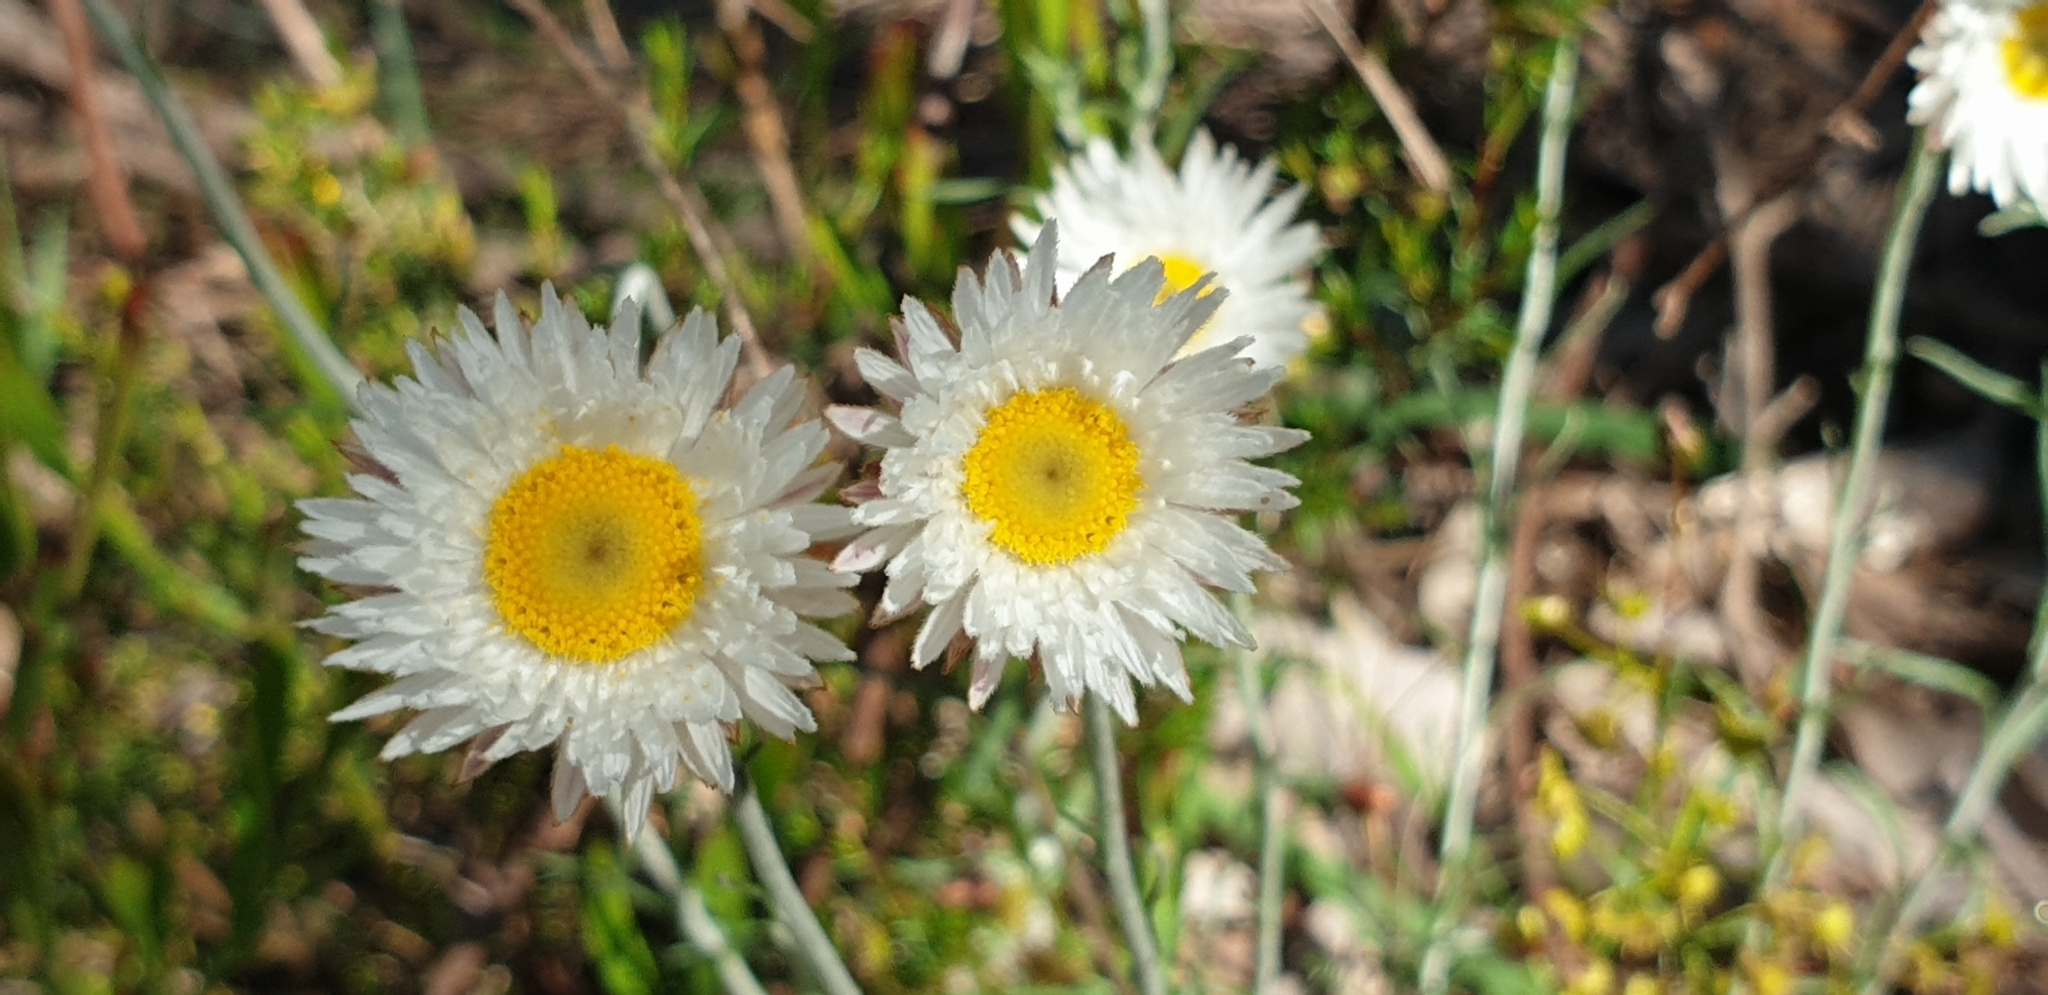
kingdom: Plantae
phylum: Tracheophyta
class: Magnoliopsida
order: Asterales
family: Asteraceae
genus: Chrysocephalum
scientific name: Chrysocephalum baxteri
